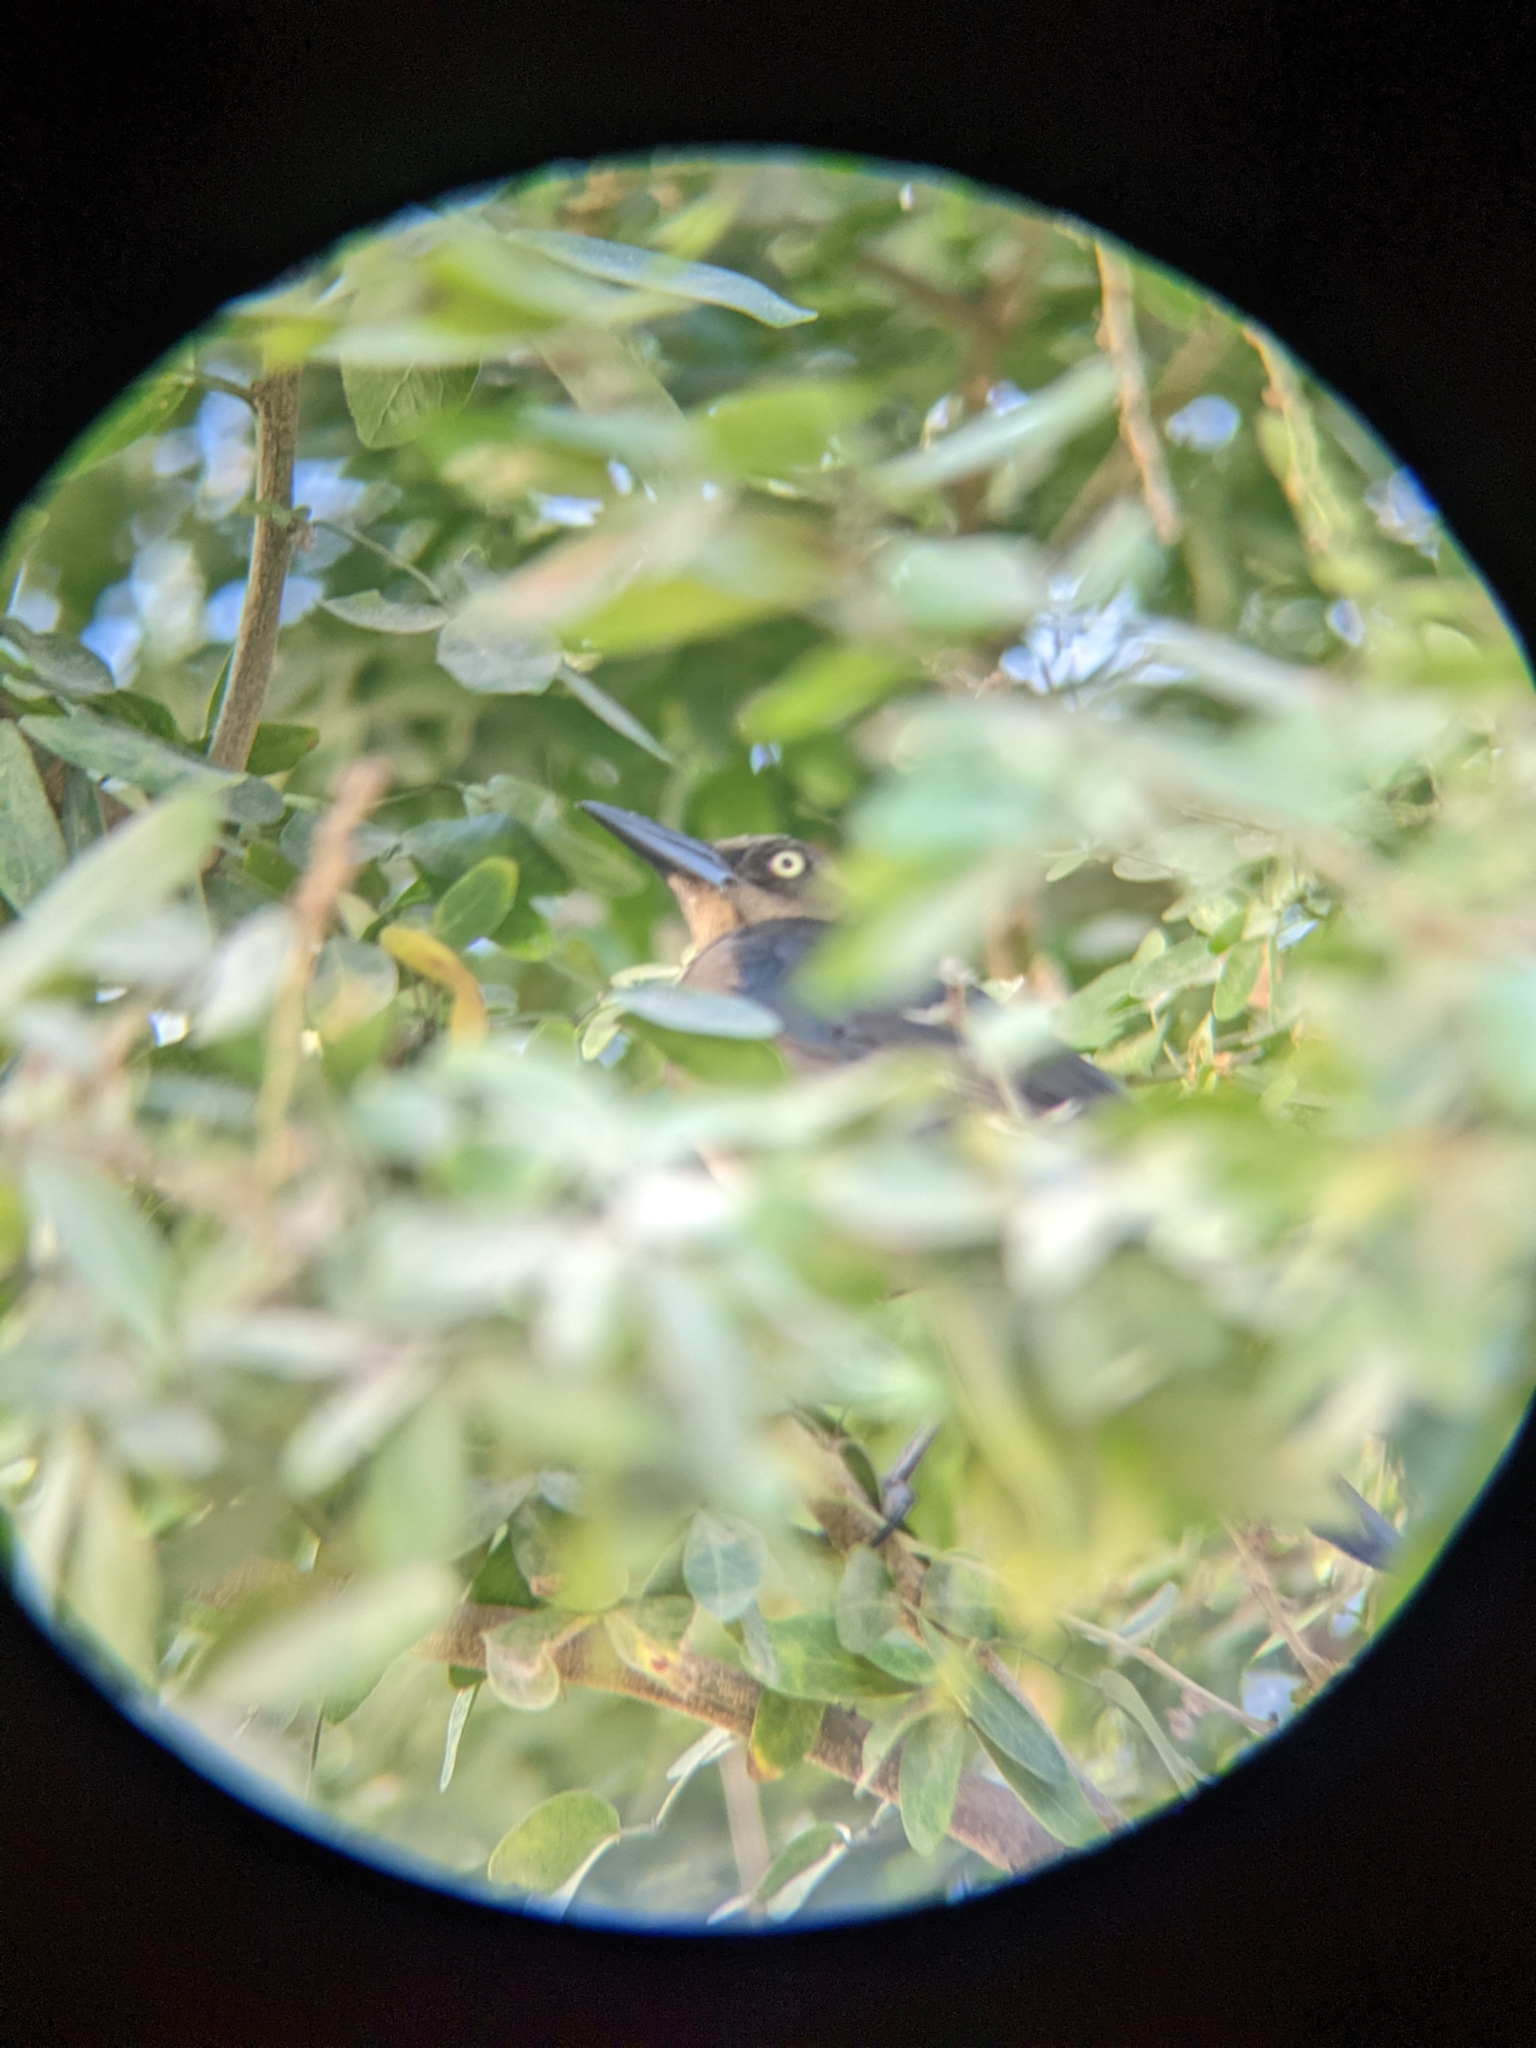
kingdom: Animalia
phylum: Chordata
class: Aves
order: Passeriformes
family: Icteridae
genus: Quiscalus
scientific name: Quiscalus mexicanus
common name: Great-tailed grackle
